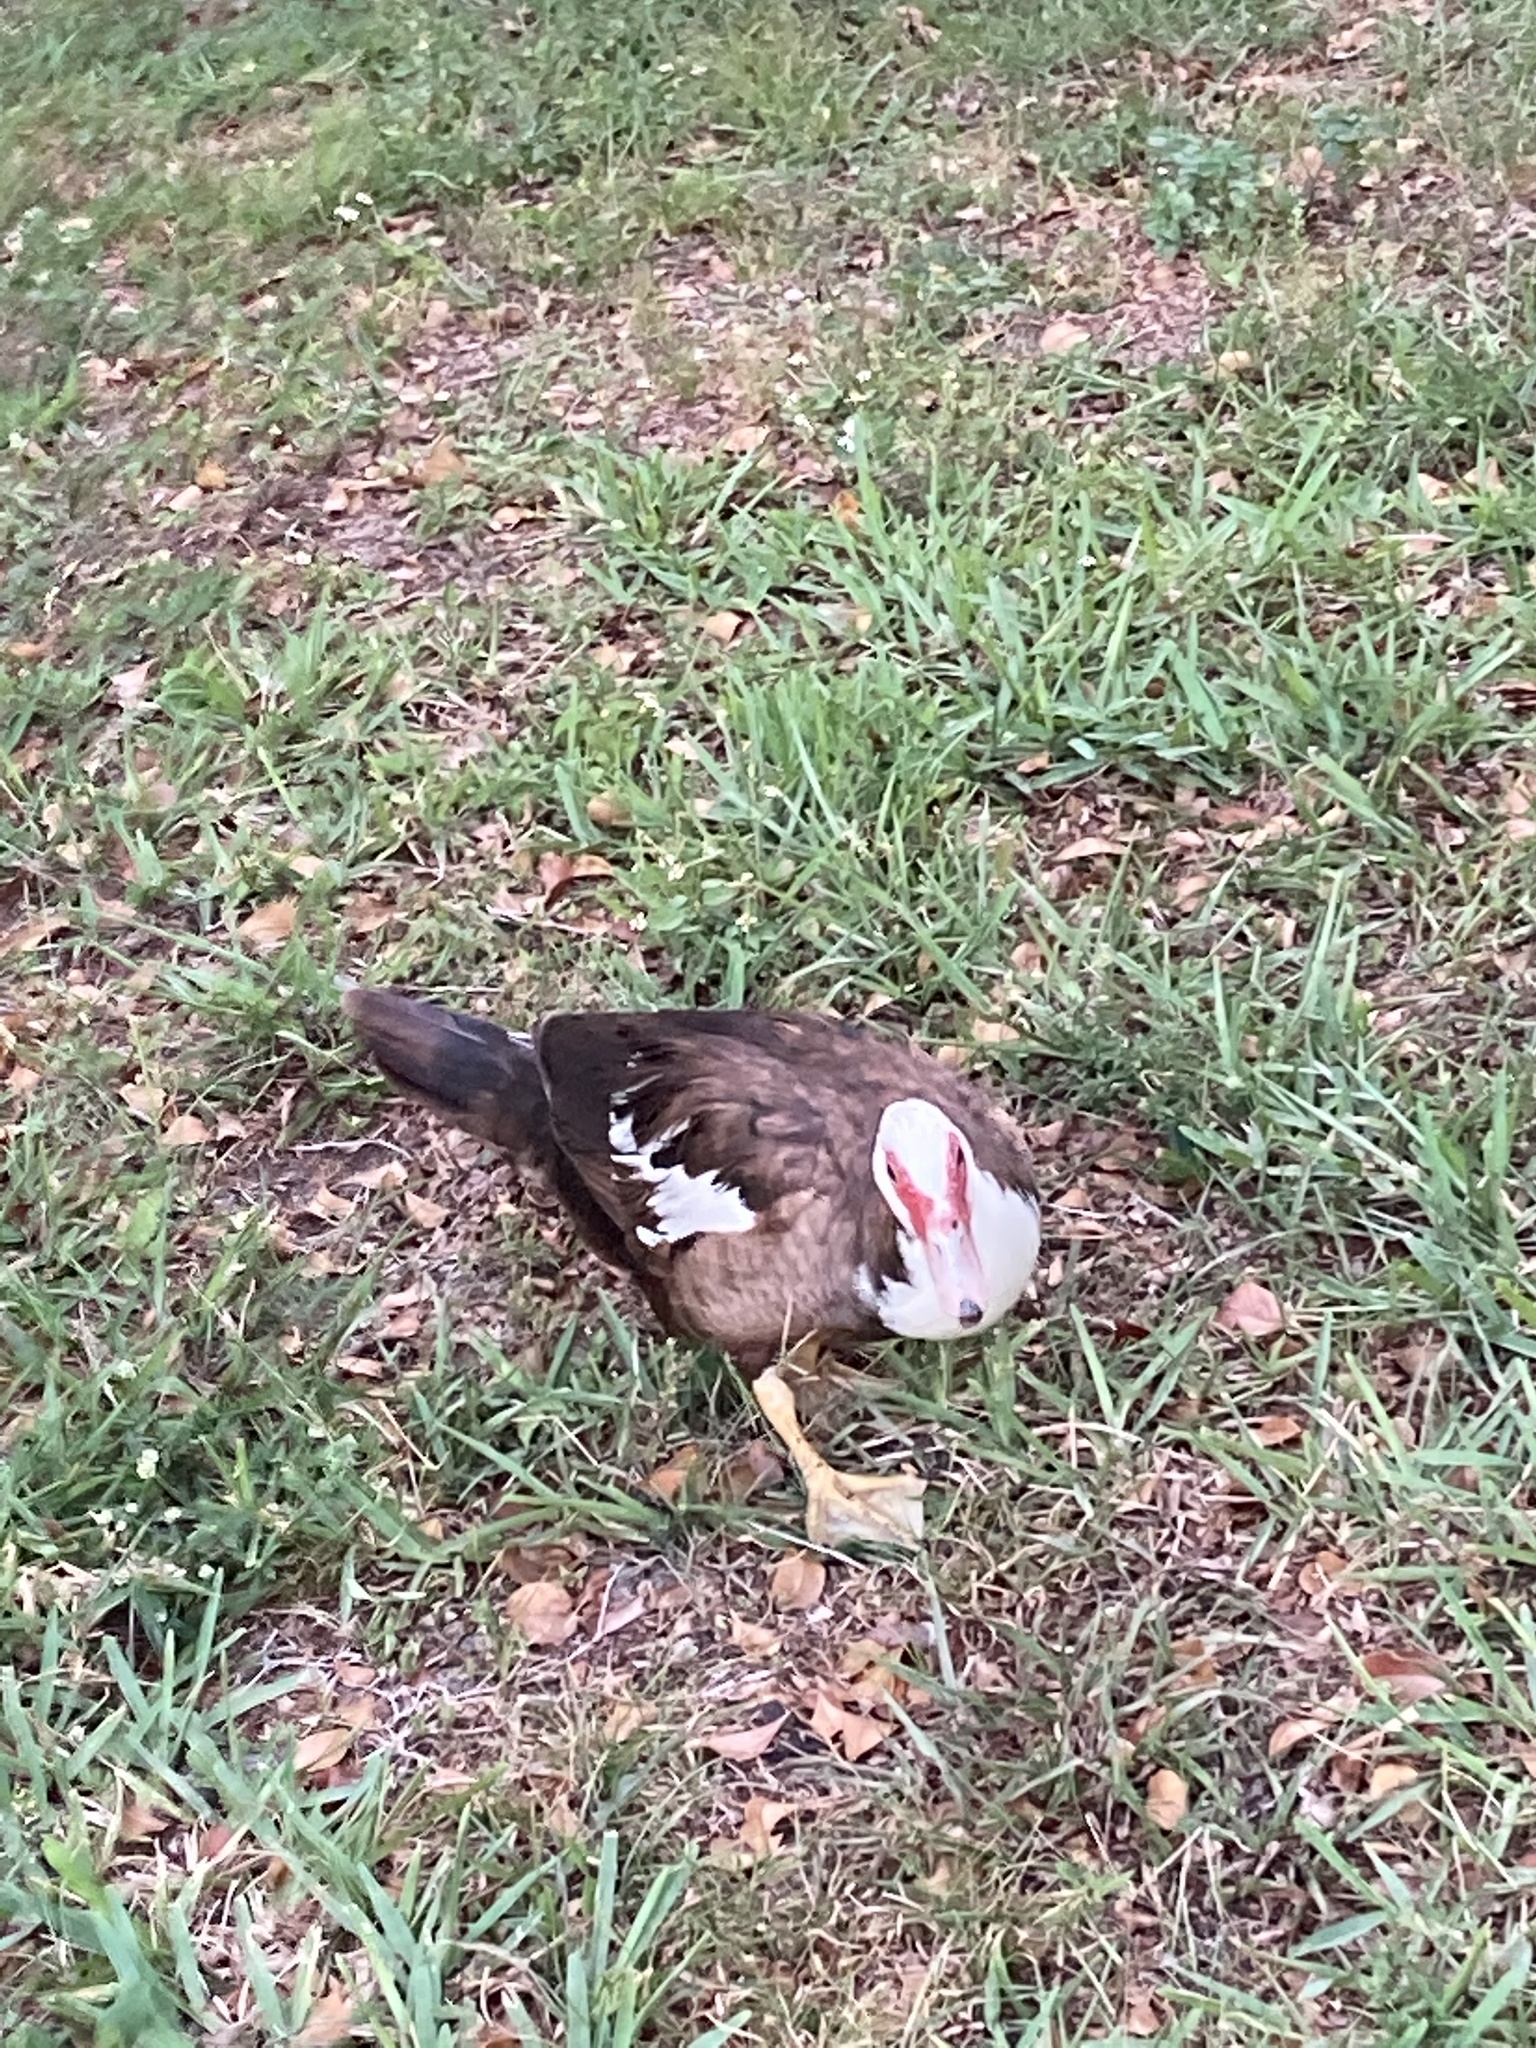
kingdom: Animalia
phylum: Chordata
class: Aves
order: Anseriformes
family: Anatidae
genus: Cairina
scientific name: Cairina moschata
